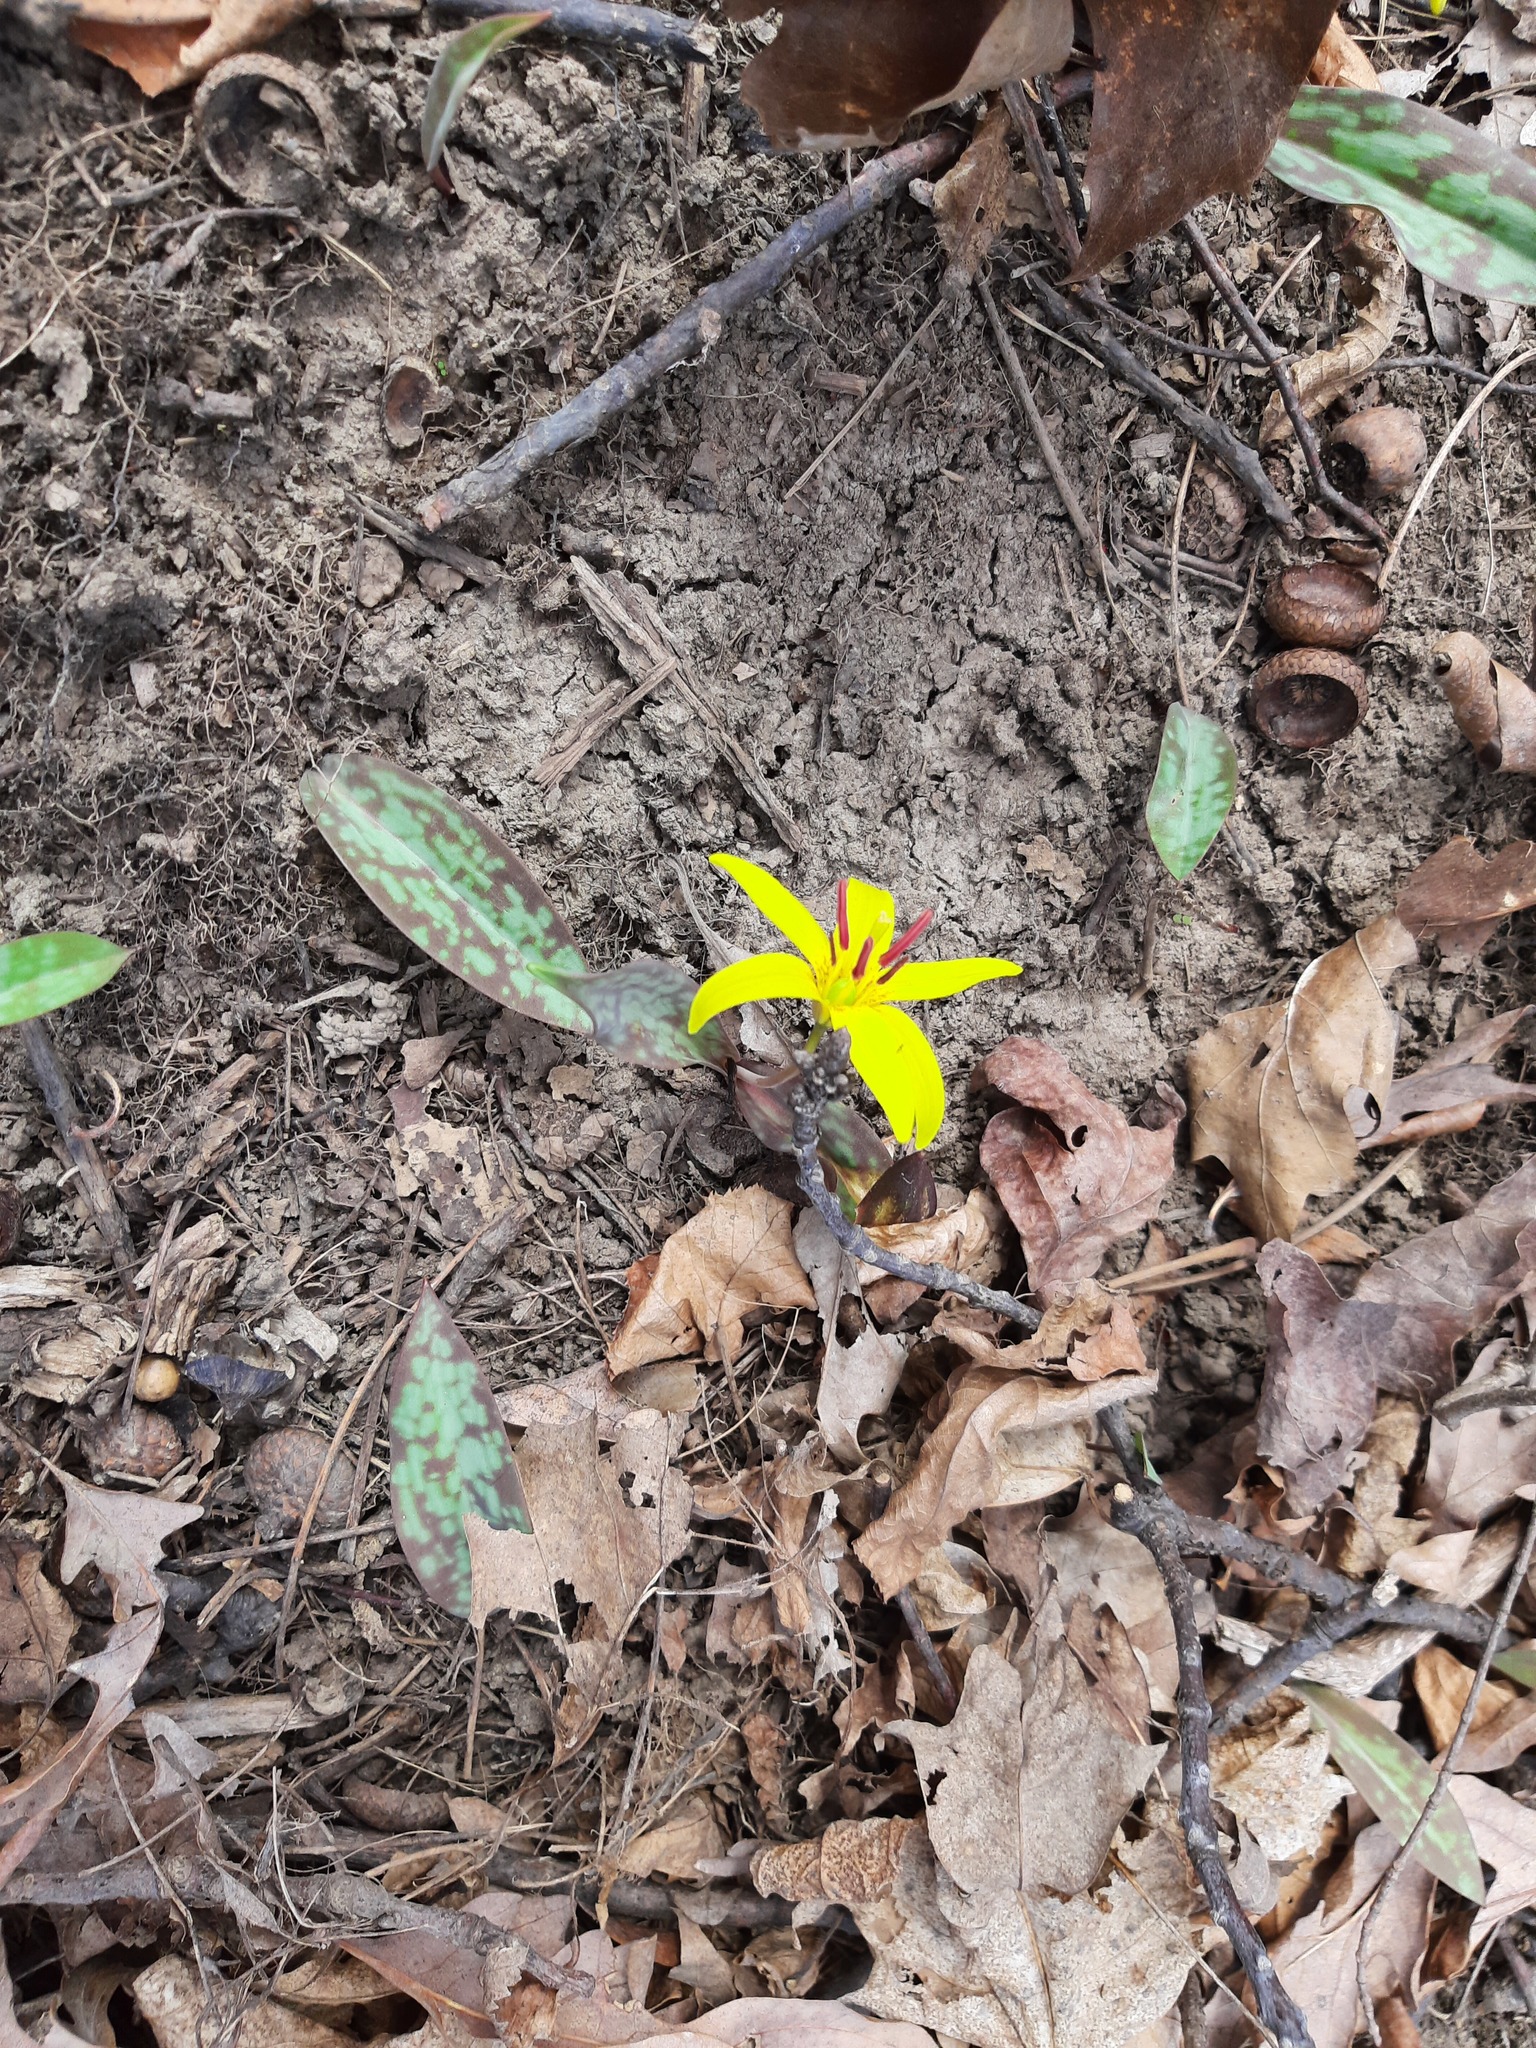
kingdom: Plantae
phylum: Tracheophyta
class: Liliopsida
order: Liliales
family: Liliaceae
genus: Erythronium
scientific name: Erythronium americanum
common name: Yellow adder's-tongue
